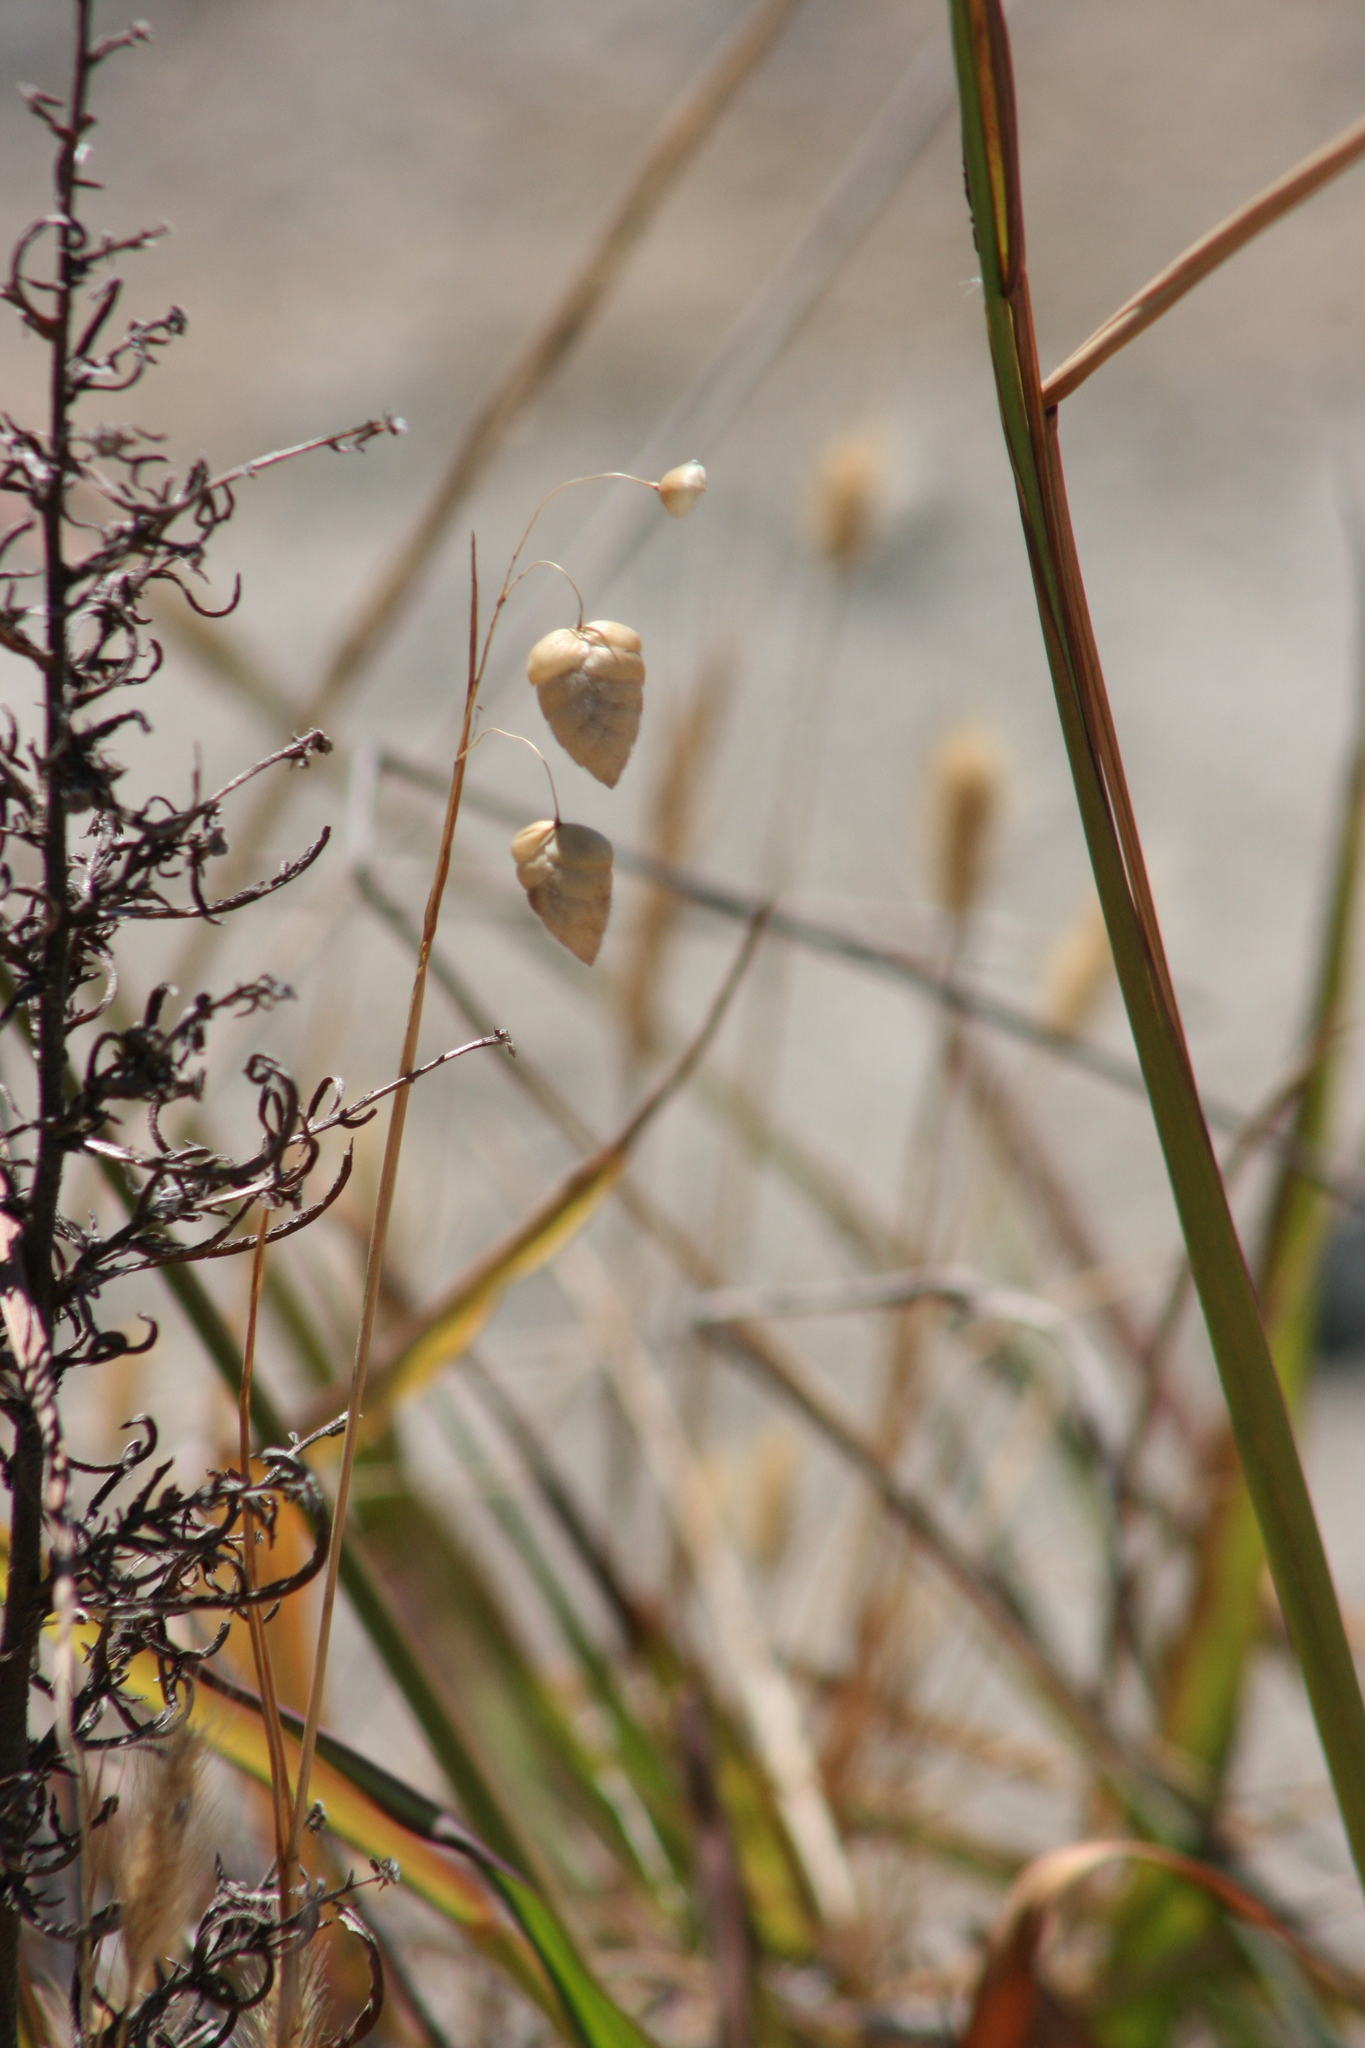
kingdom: Plantae
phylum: Tracheophyta
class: Liliopsida
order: Poales
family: Poaceae
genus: Briza
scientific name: Briza maxima
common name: Big quakinggrass
